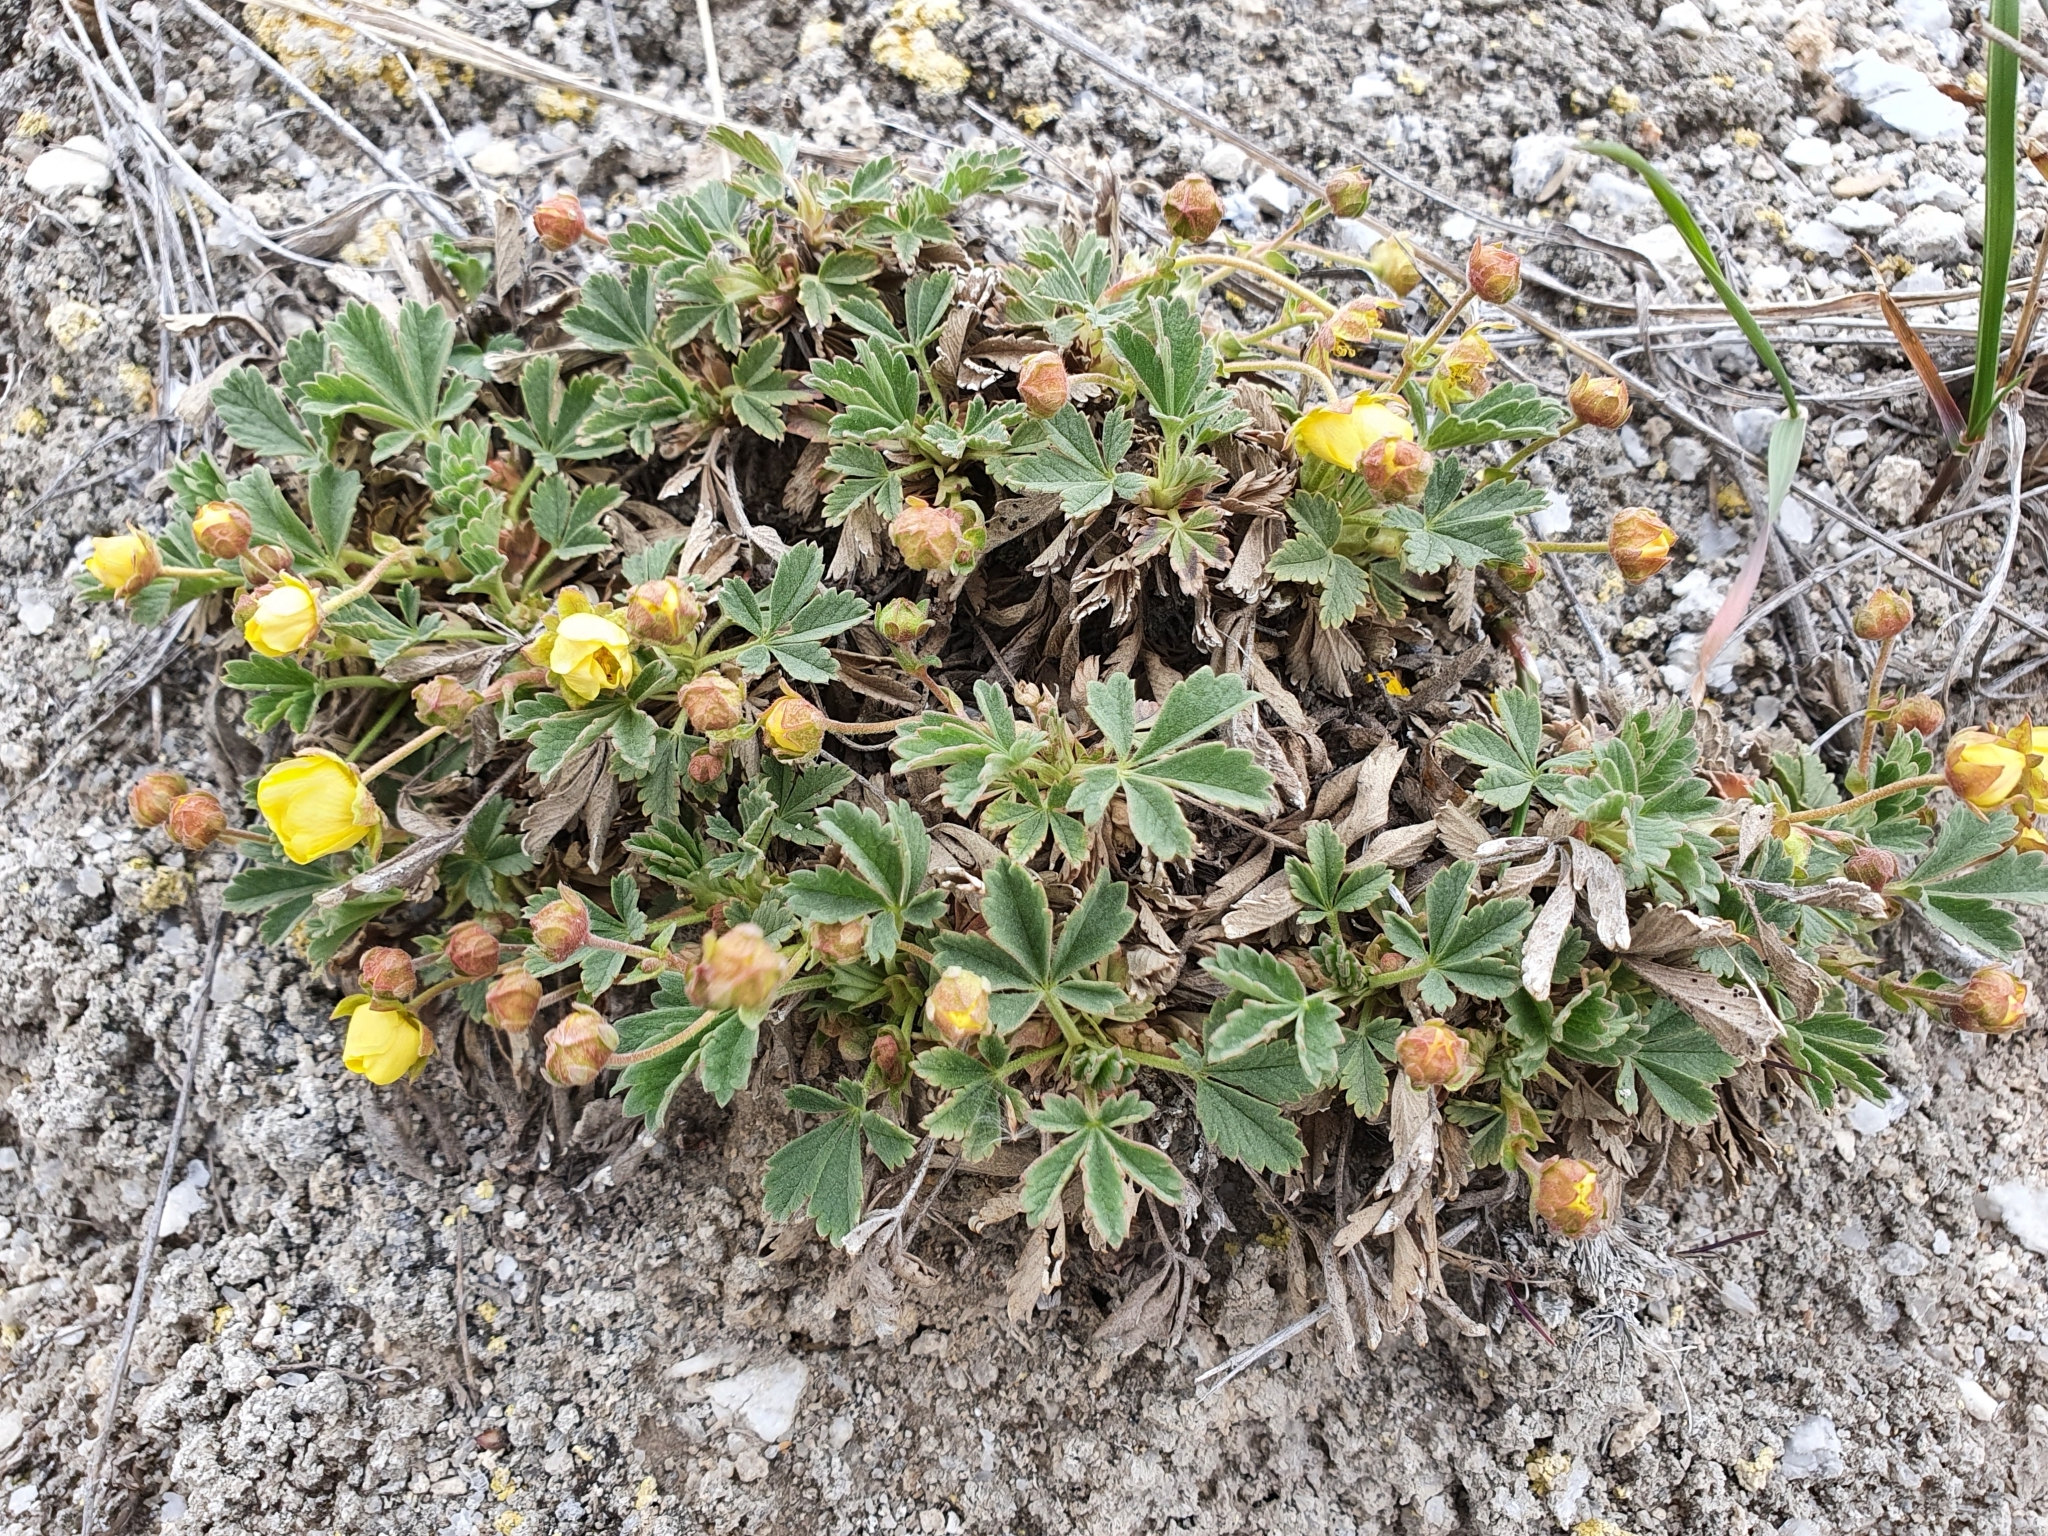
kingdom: Plantae
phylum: Tracheophyta
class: Magnoliopsida
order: Rosales
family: Rosaceae
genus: Potentilla
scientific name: Potentilla incana
